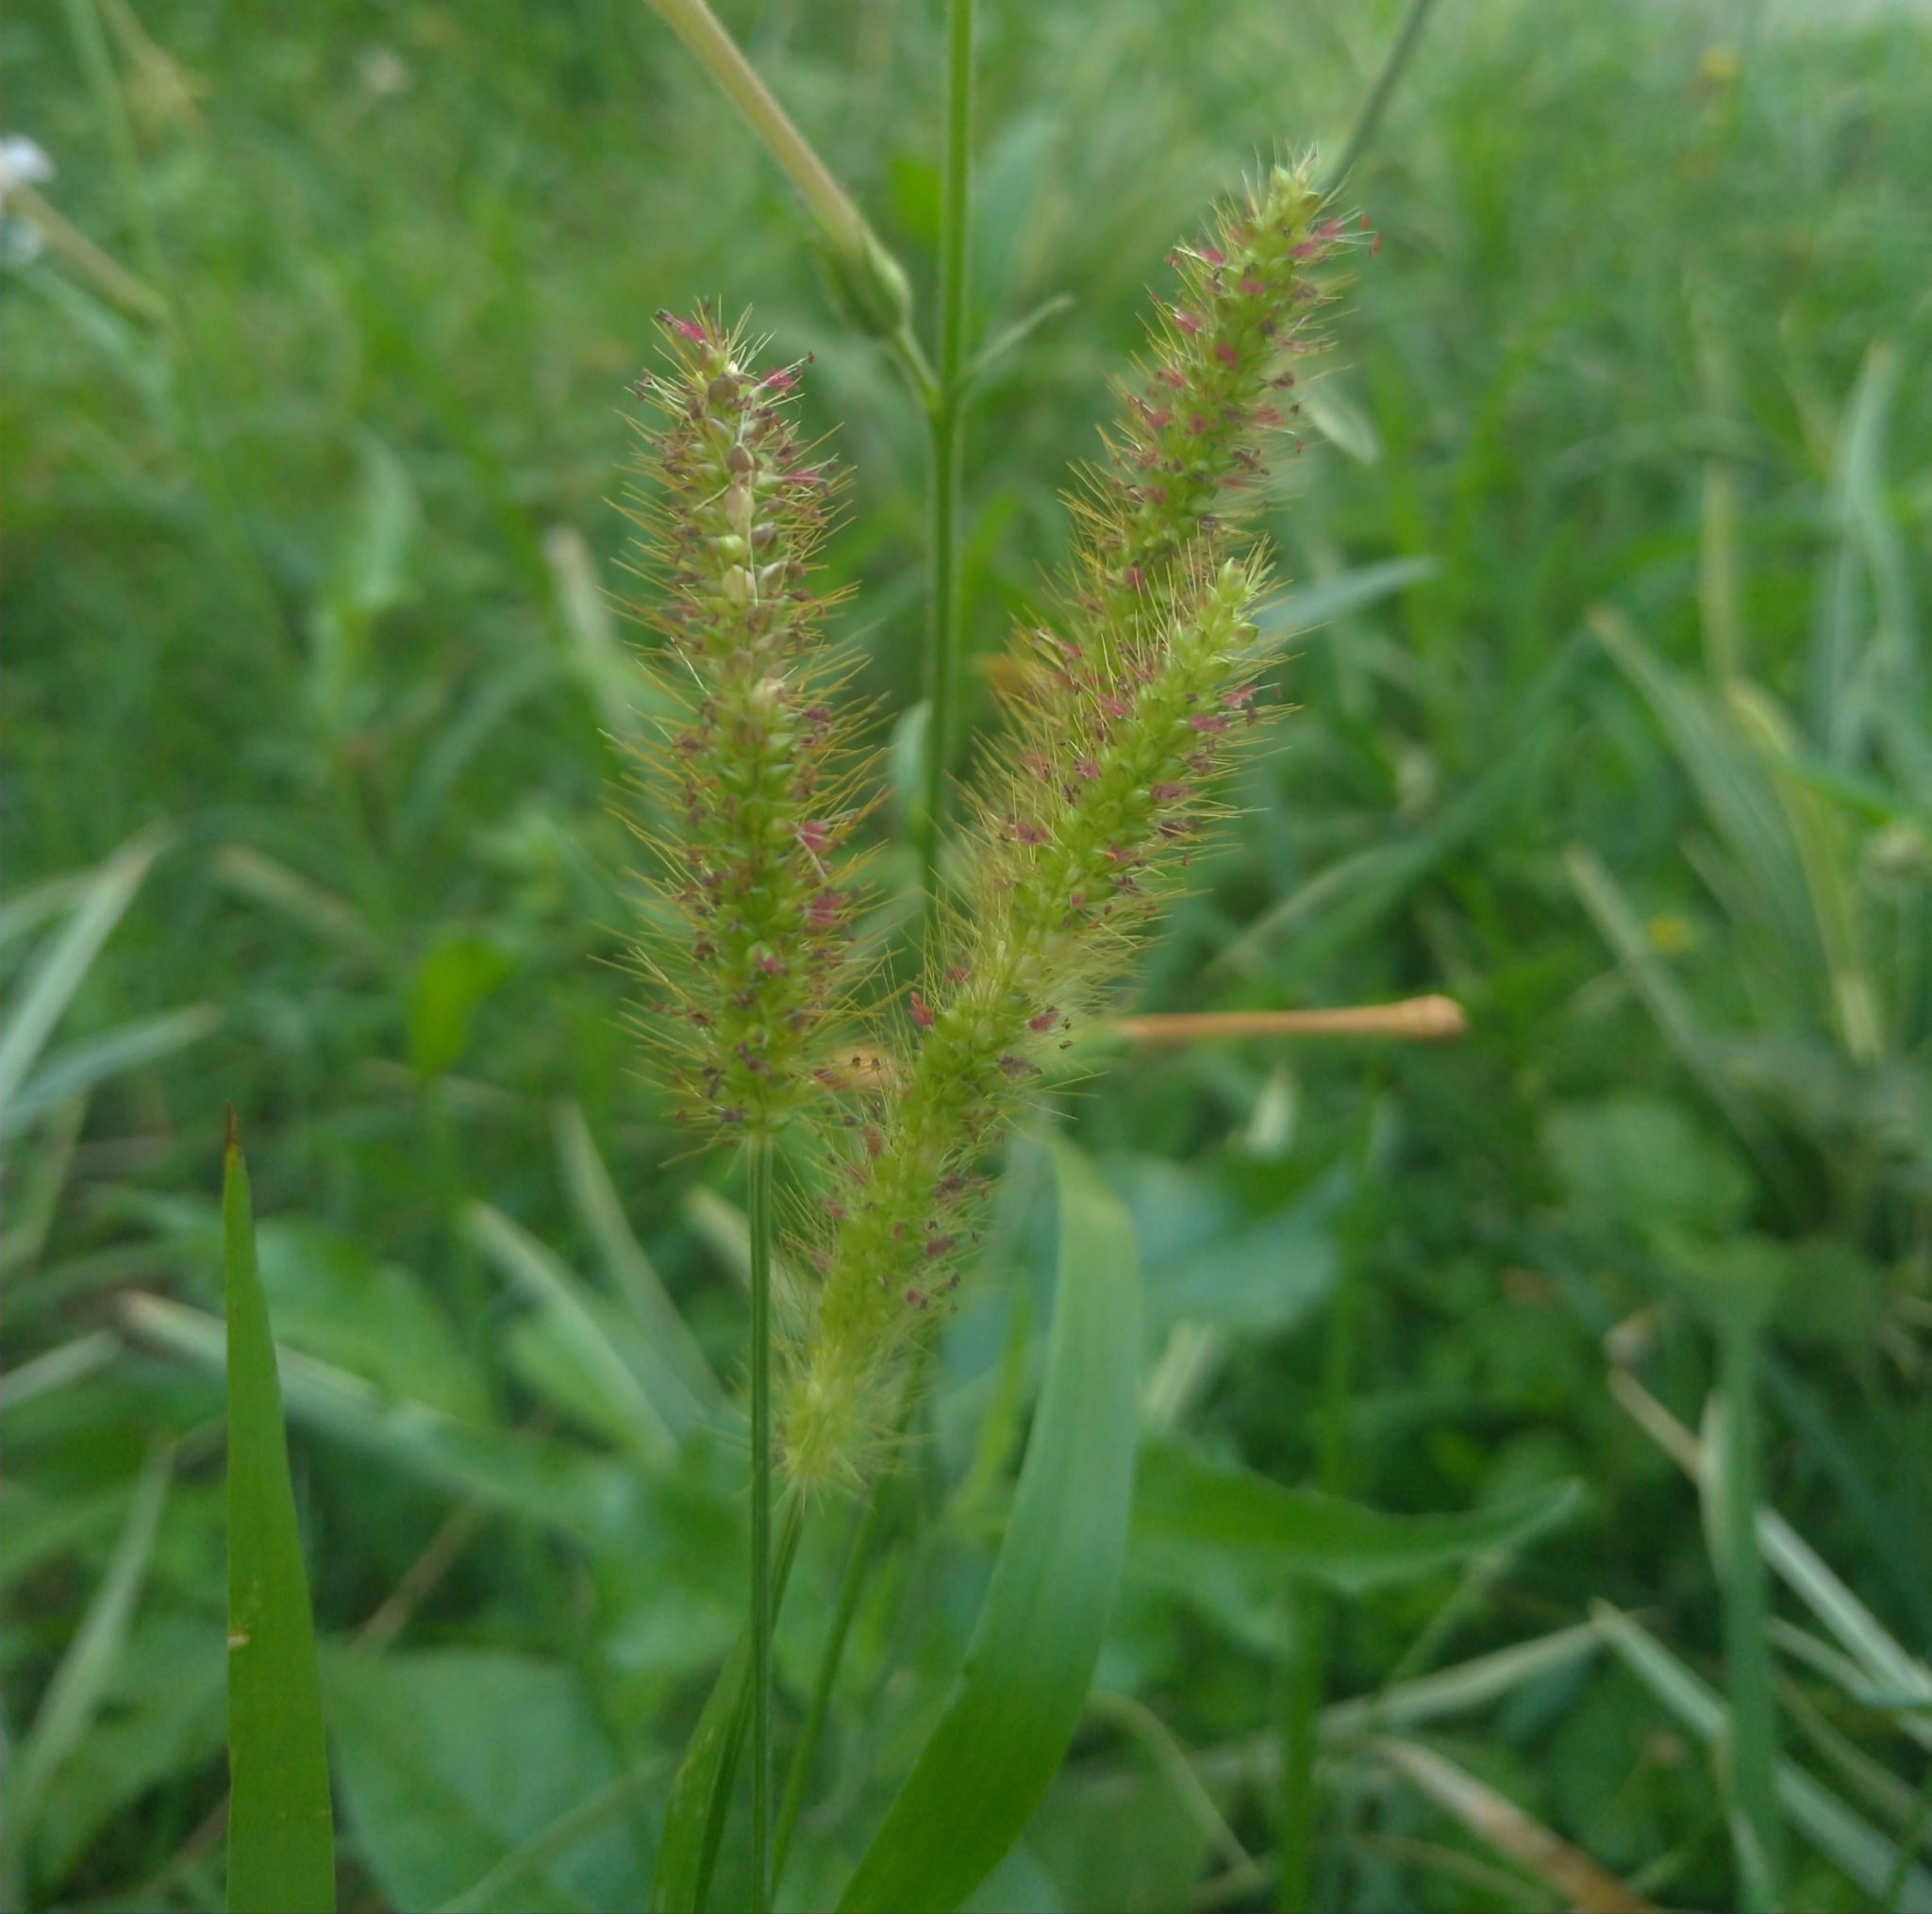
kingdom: Plantae
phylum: Tracheophyta
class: Liliopsida
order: Poales
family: Poaceae
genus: Setaria
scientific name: Setaria parviflora
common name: Knotroot bristle-grass
